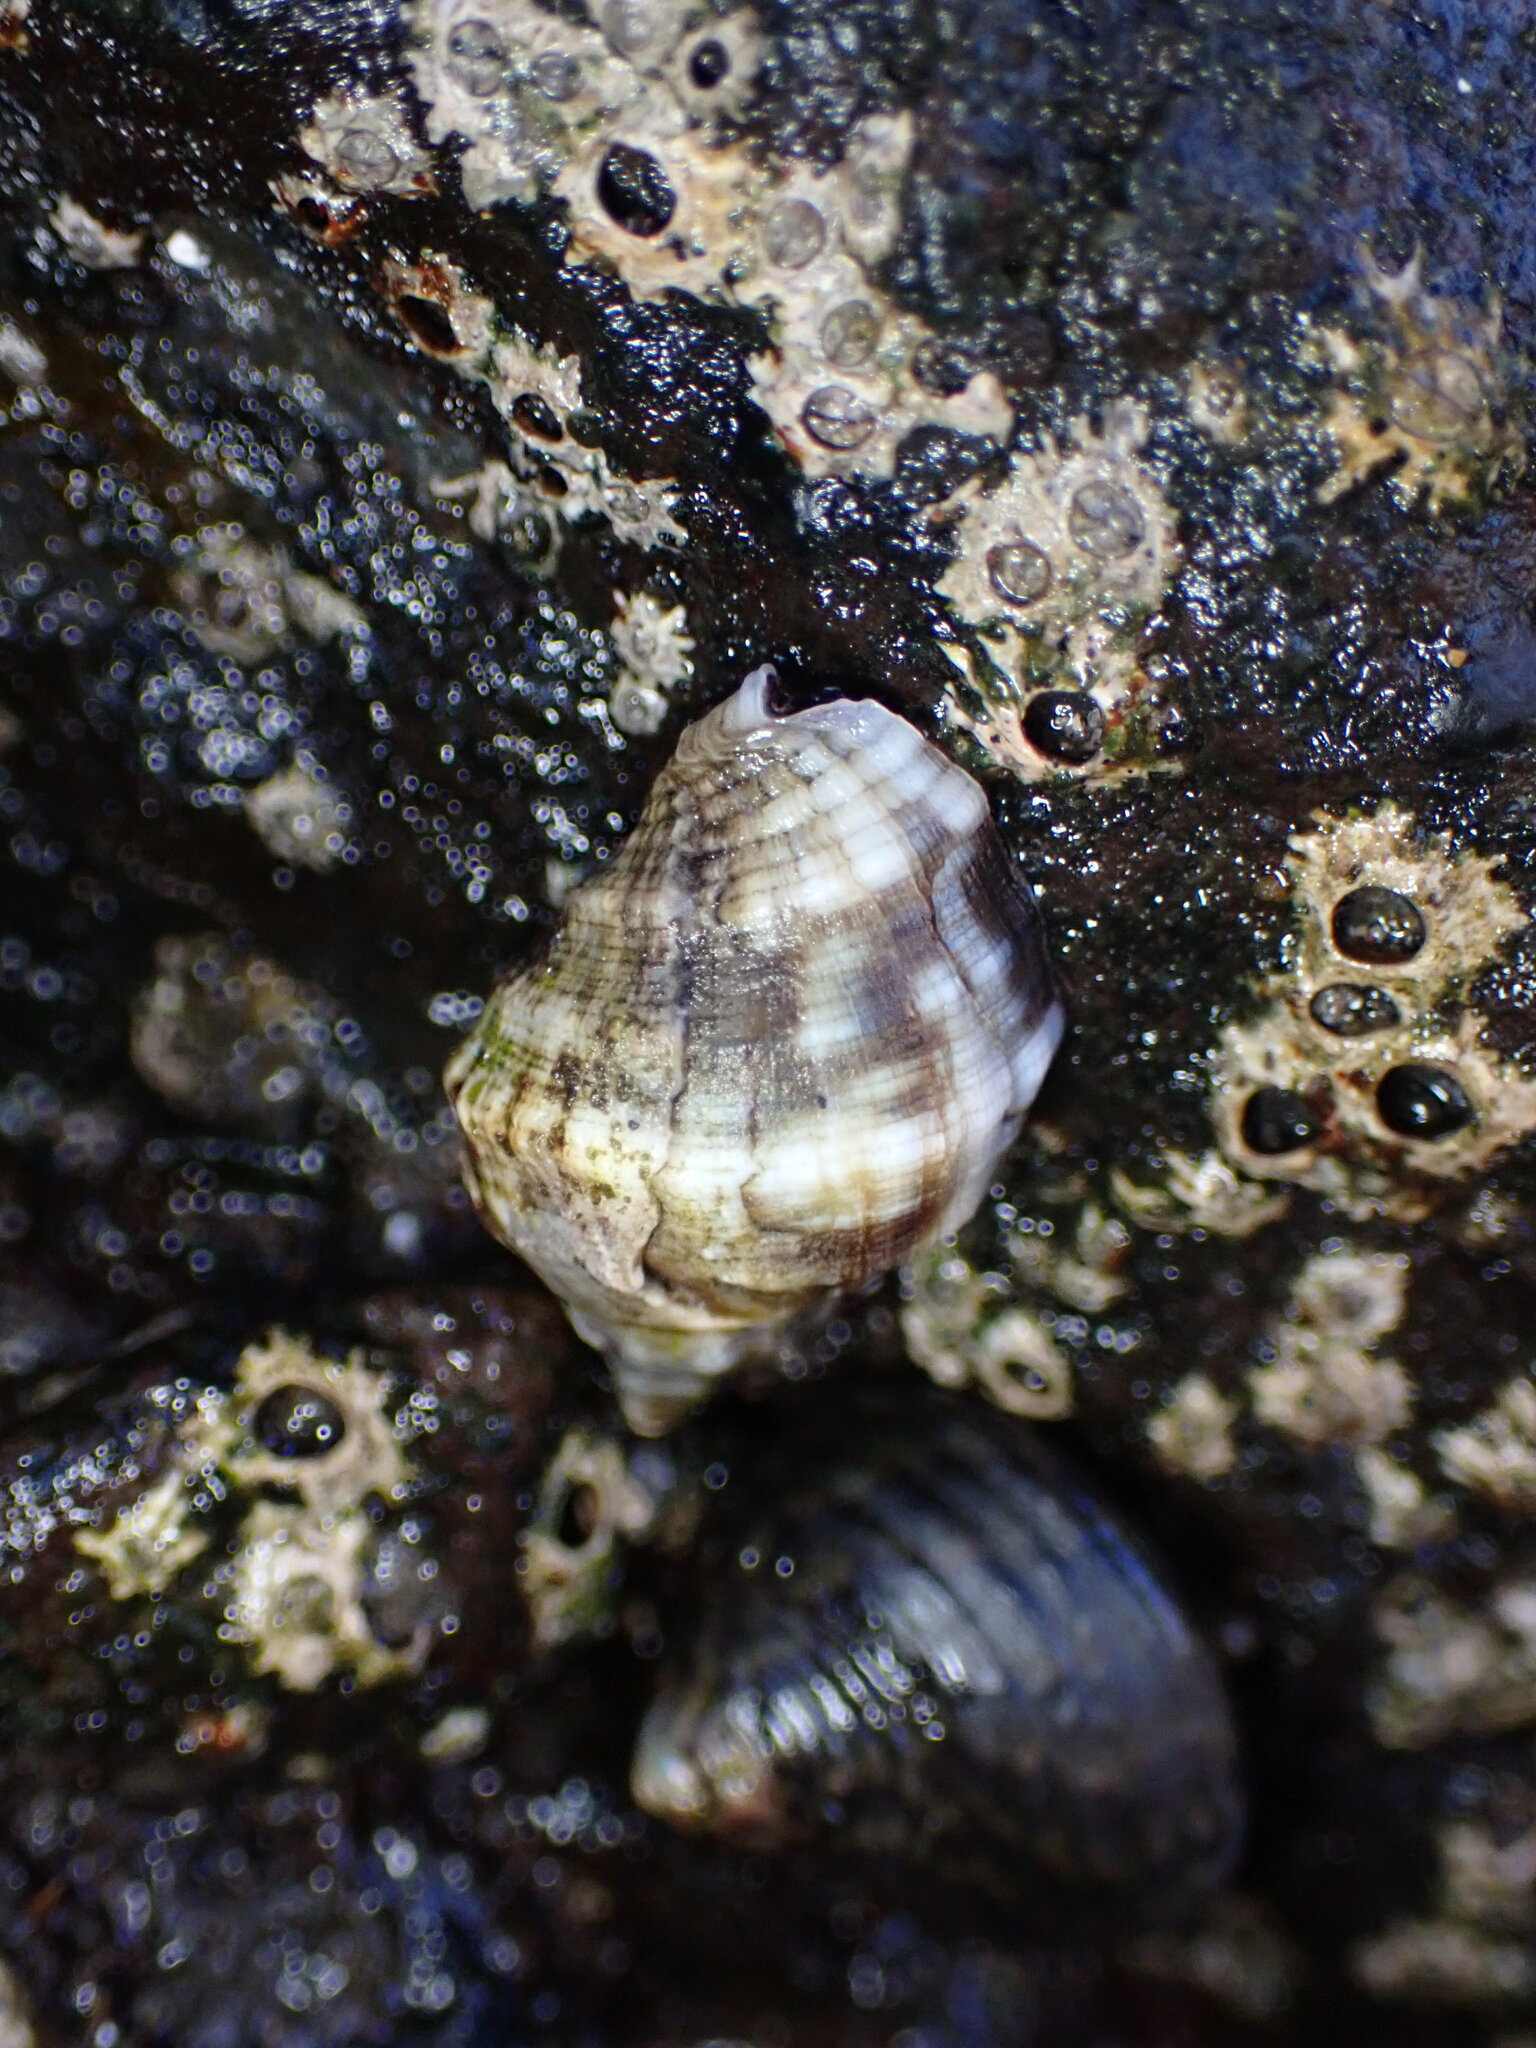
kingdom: Animalia
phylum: Mollusca
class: Gastropoda
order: Neogastropoda
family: Muricidae
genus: Stramonita
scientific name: Stramonita haemastoma
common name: Florida dog winkle
